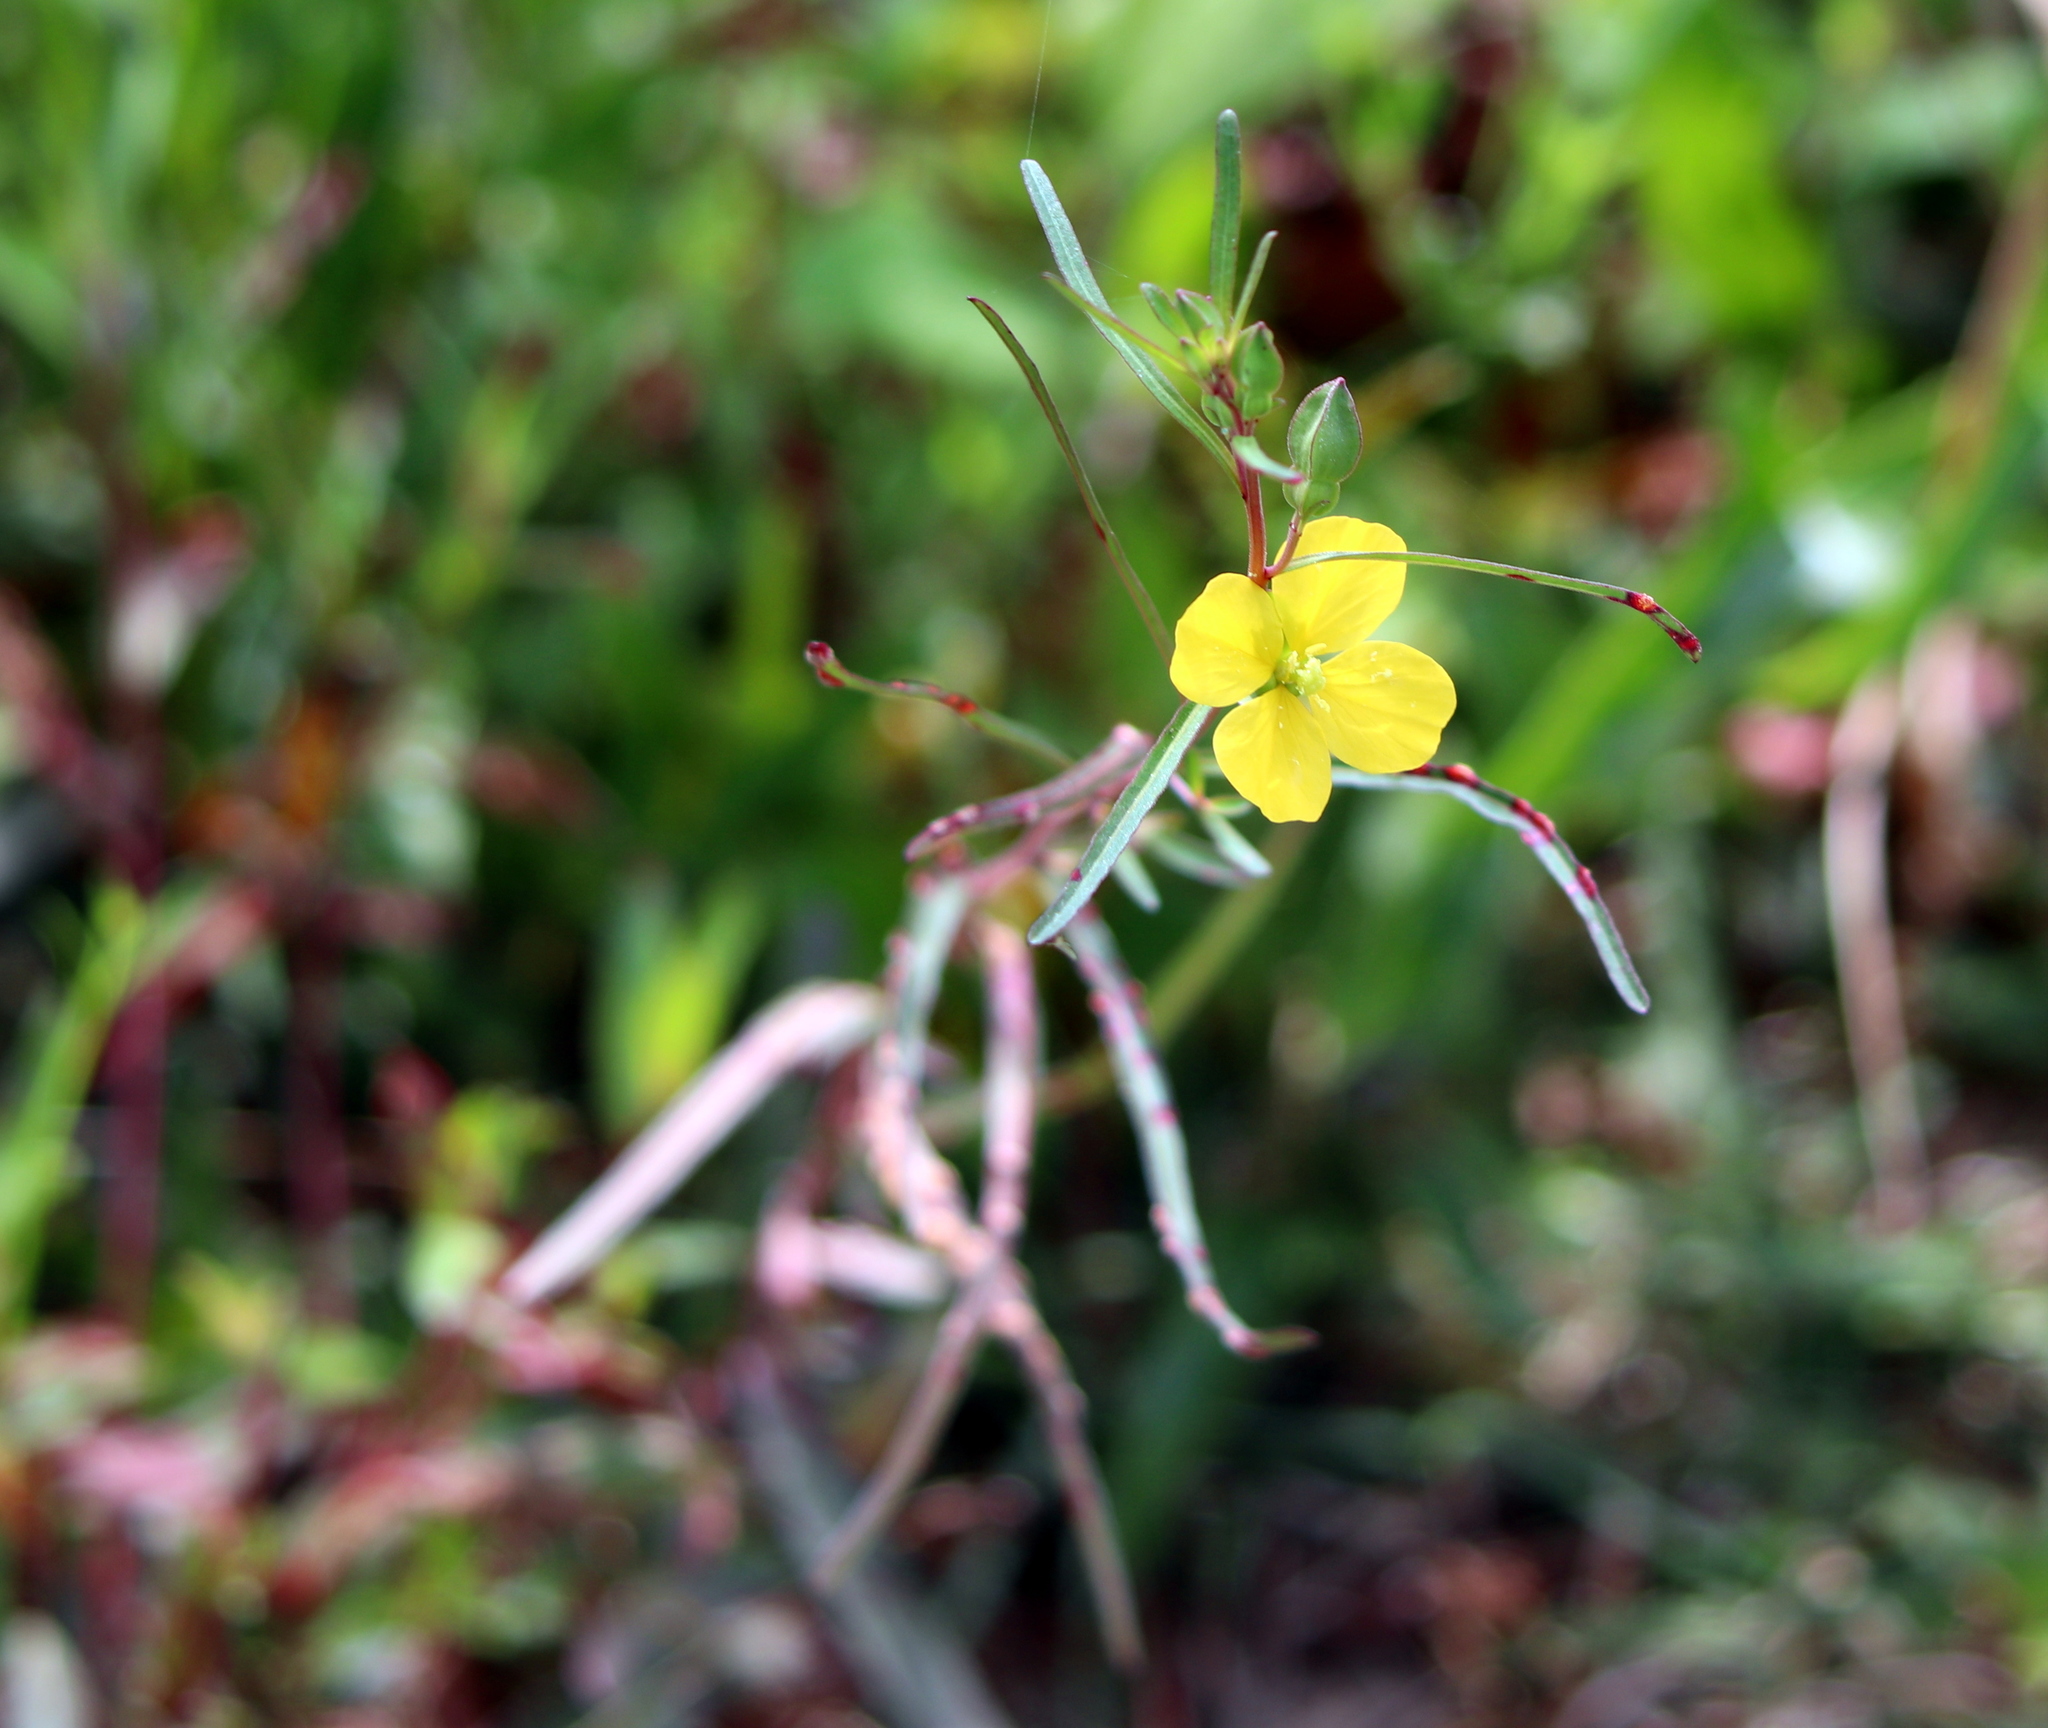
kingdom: Plantae
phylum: Tracheophyta
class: Magnoliopsida
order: Myrtales
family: Onagraceae
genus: Ludwigia
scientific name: Ludwigia linearis
